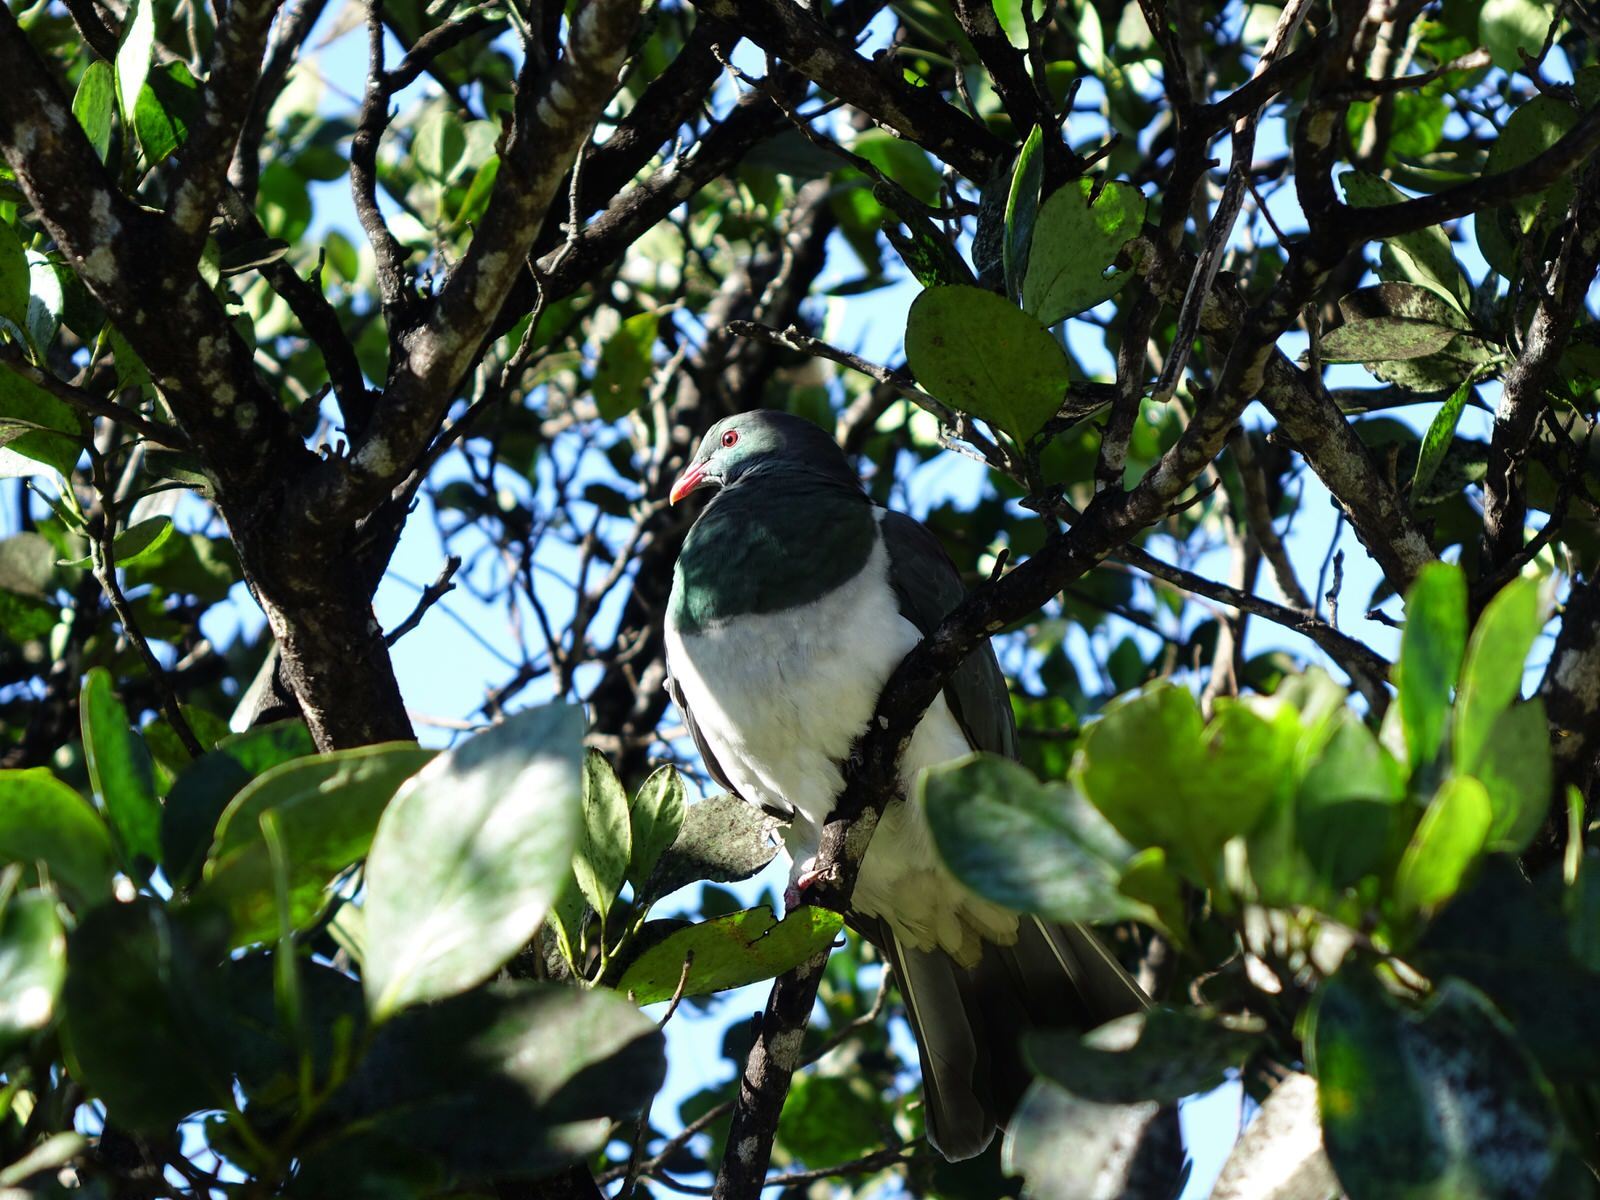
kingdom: Animalia
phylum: Chordata
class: Aves
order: Columbiformes
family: Columbidae
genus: Hemiphaga
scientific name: Hemiphaga novaeseelandiae
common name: New zealand pigeon
